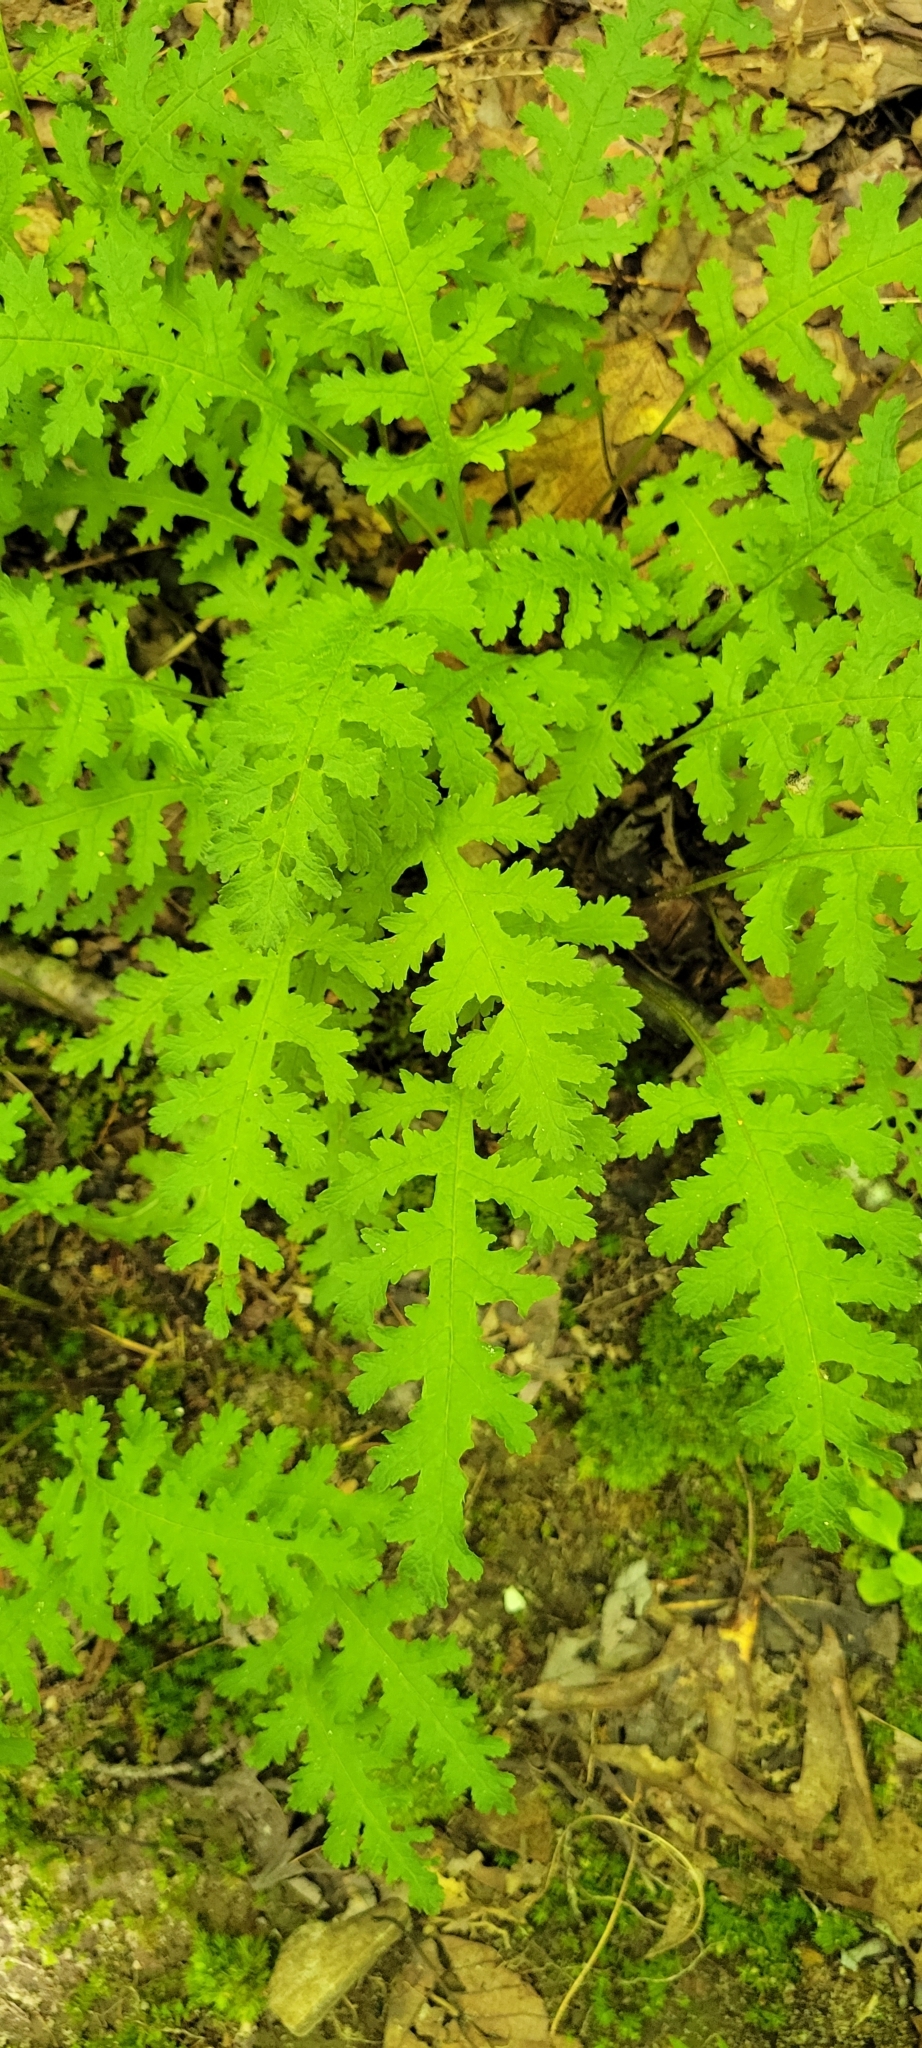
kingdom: Plantae
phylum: Tracheophyta
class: Magnoliopsida
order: Lamiales
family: Orobanchaceae
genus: Pedicularis
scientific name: Pedicularis canadensis
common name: Early lousewort
